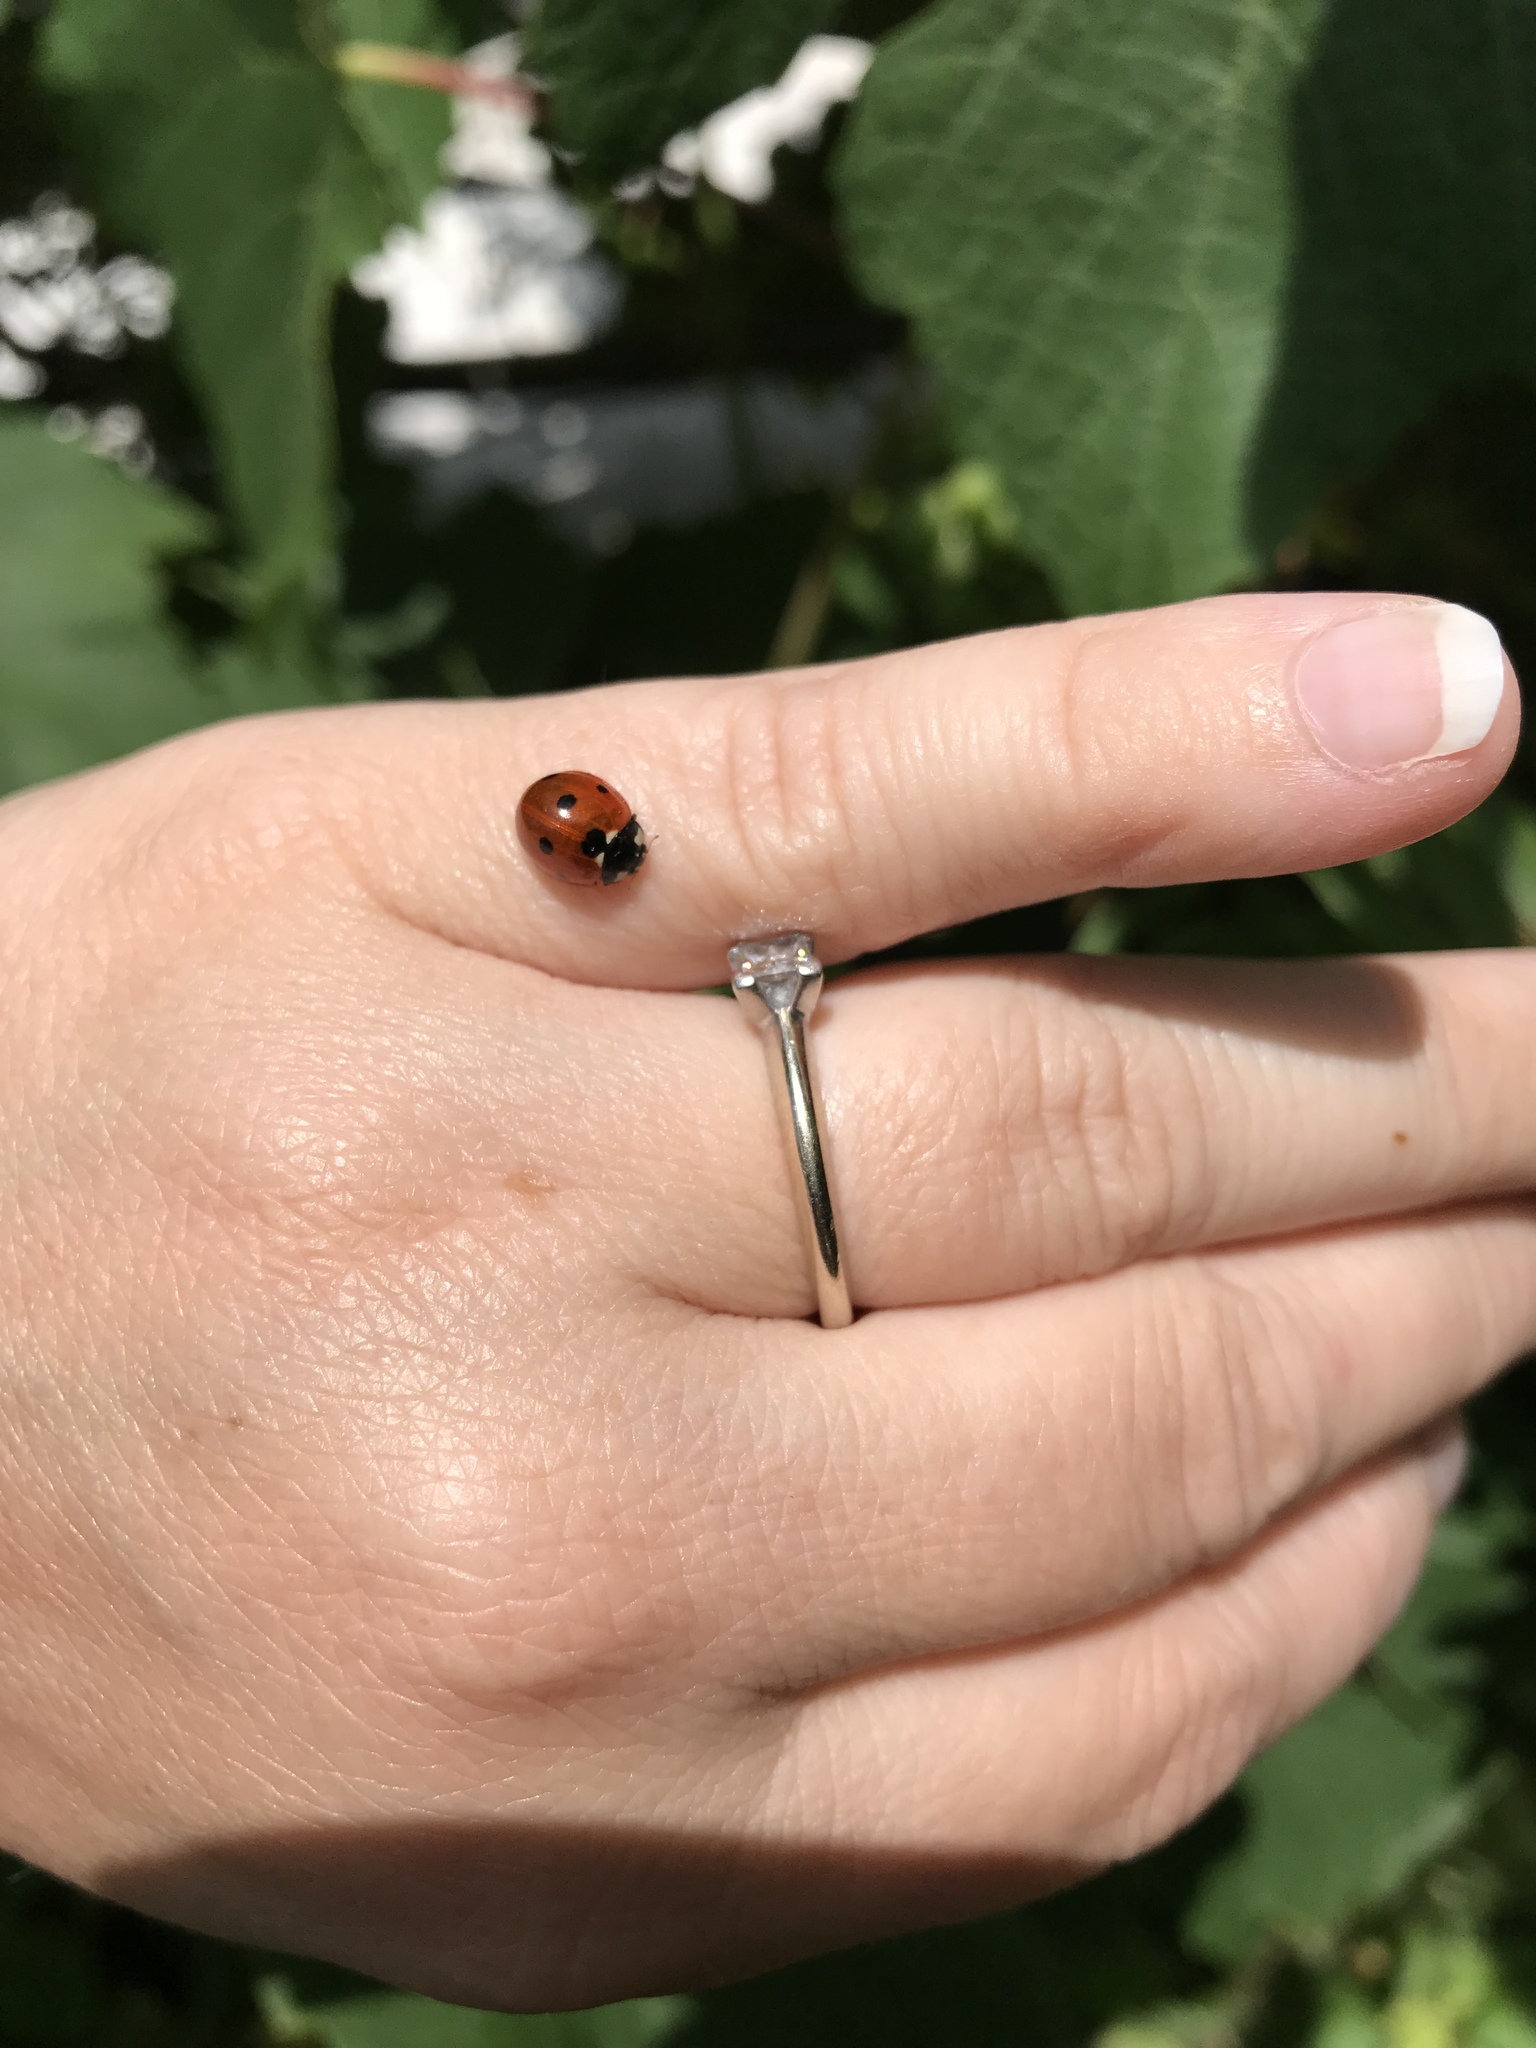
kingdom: Animalia
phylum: Arthropoda
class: Insecta
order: Coleoptera
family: Coccinellidae
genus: Coccinella
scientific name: Coccinella septempunctata
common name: Sevenspotted lady beetle
